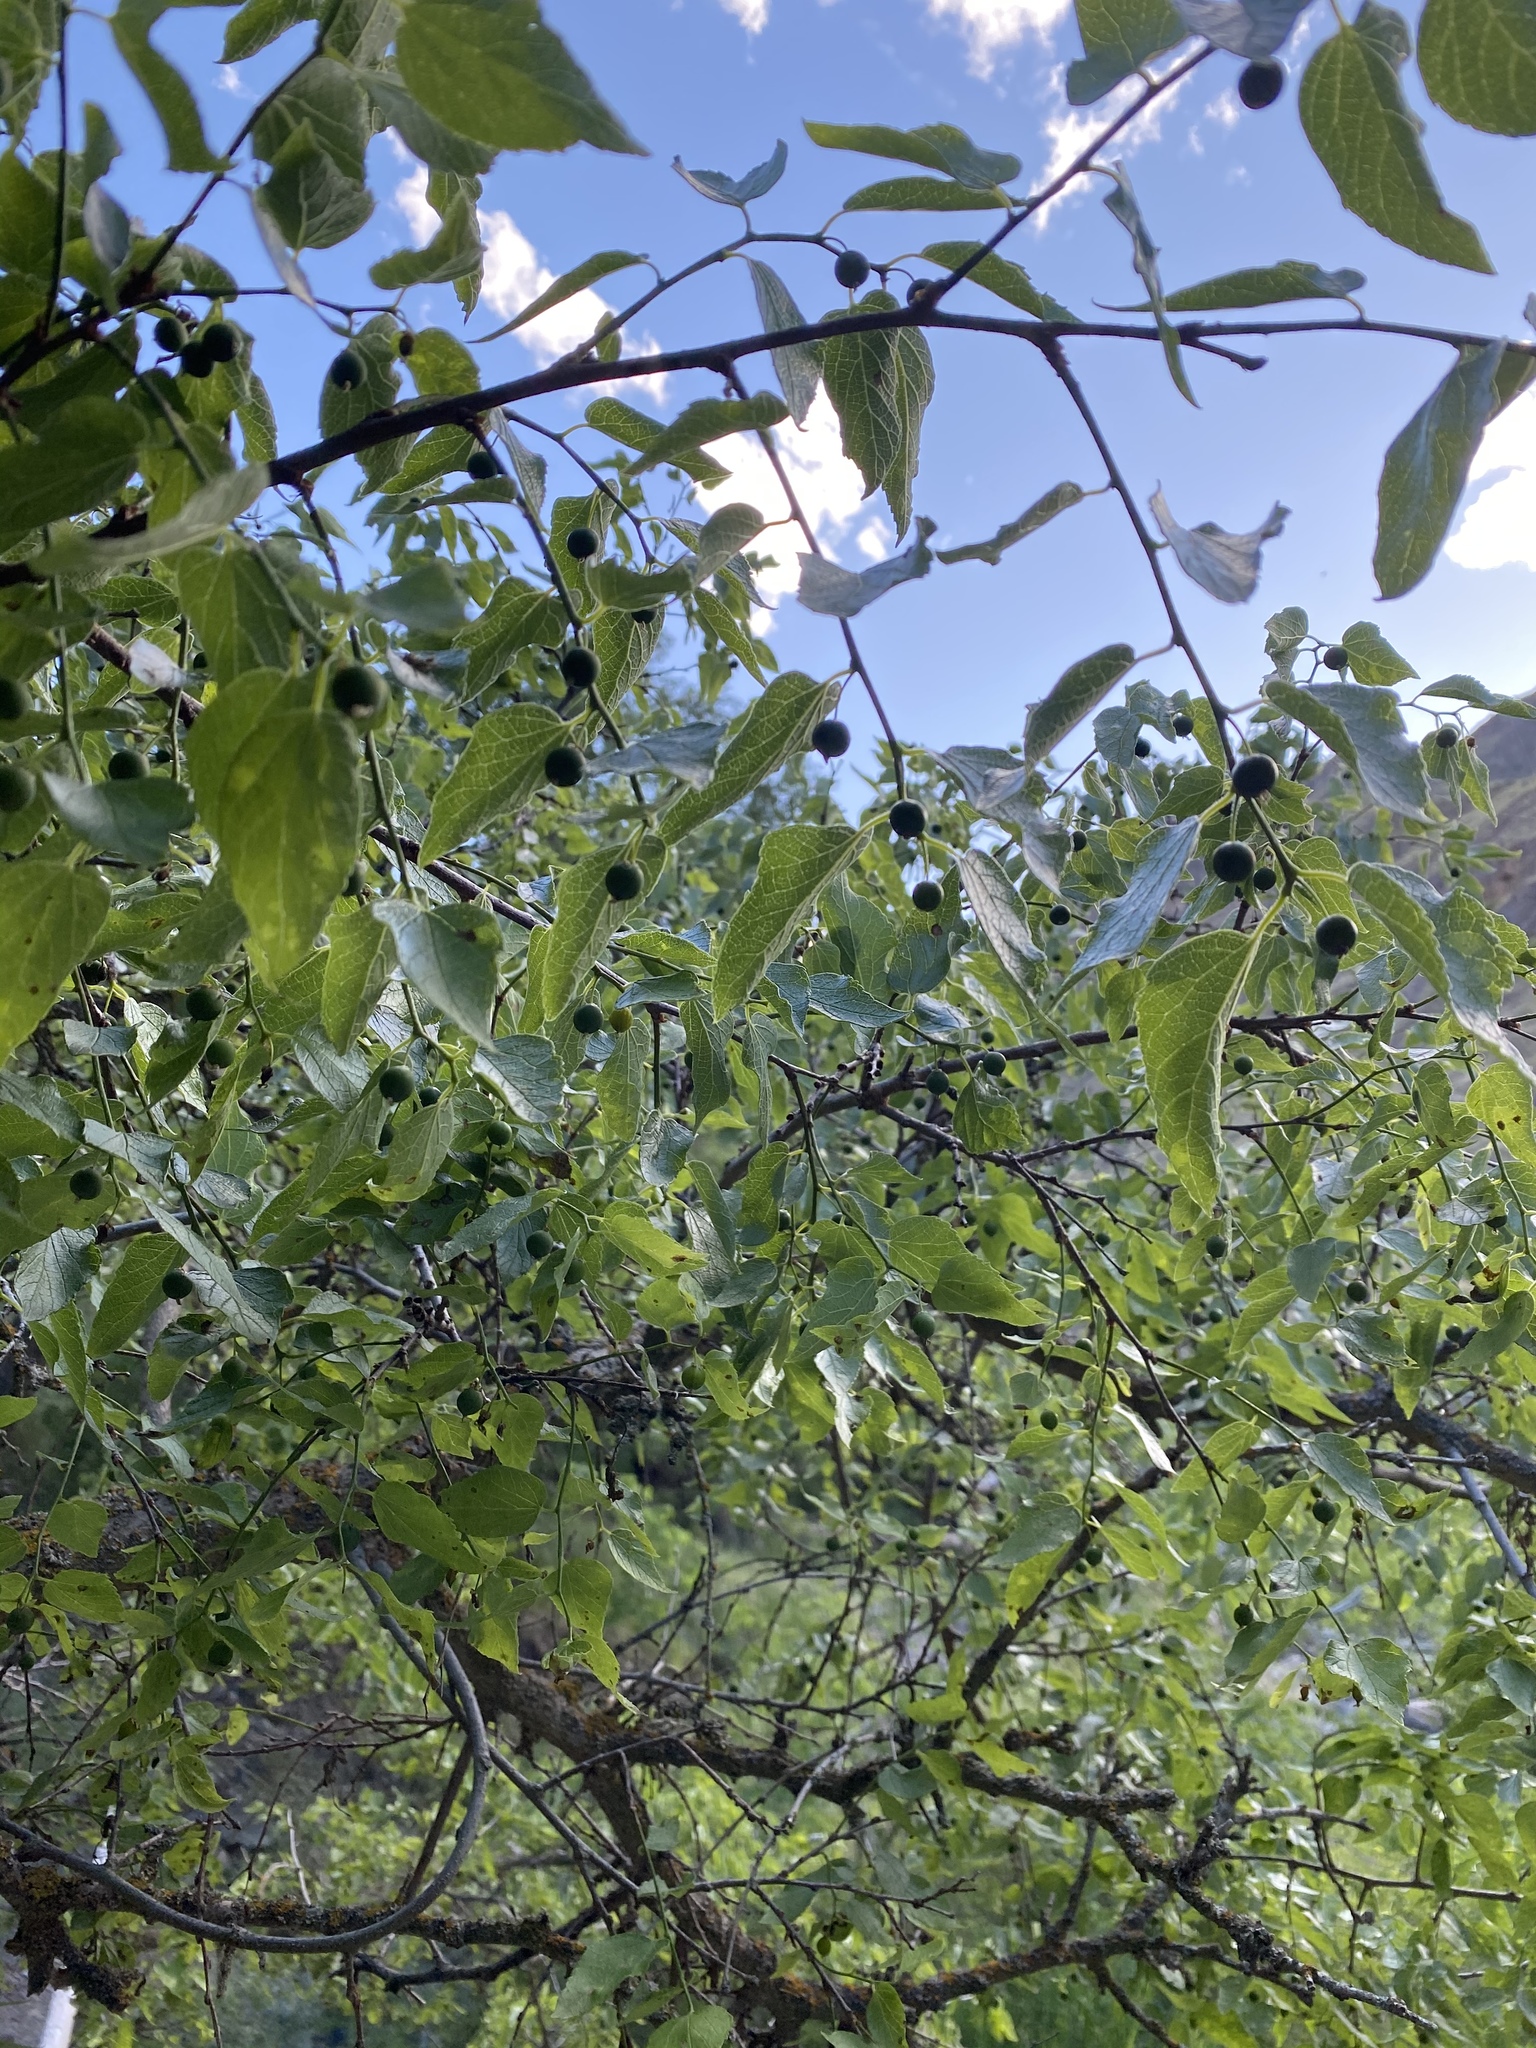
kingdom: Plantae
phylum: Tracheophyta
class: Magnoliopsida
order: Rosales
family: Cannabaceae
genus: Celtis
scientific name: Celtis reticulata
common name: Netleaf hackberry
